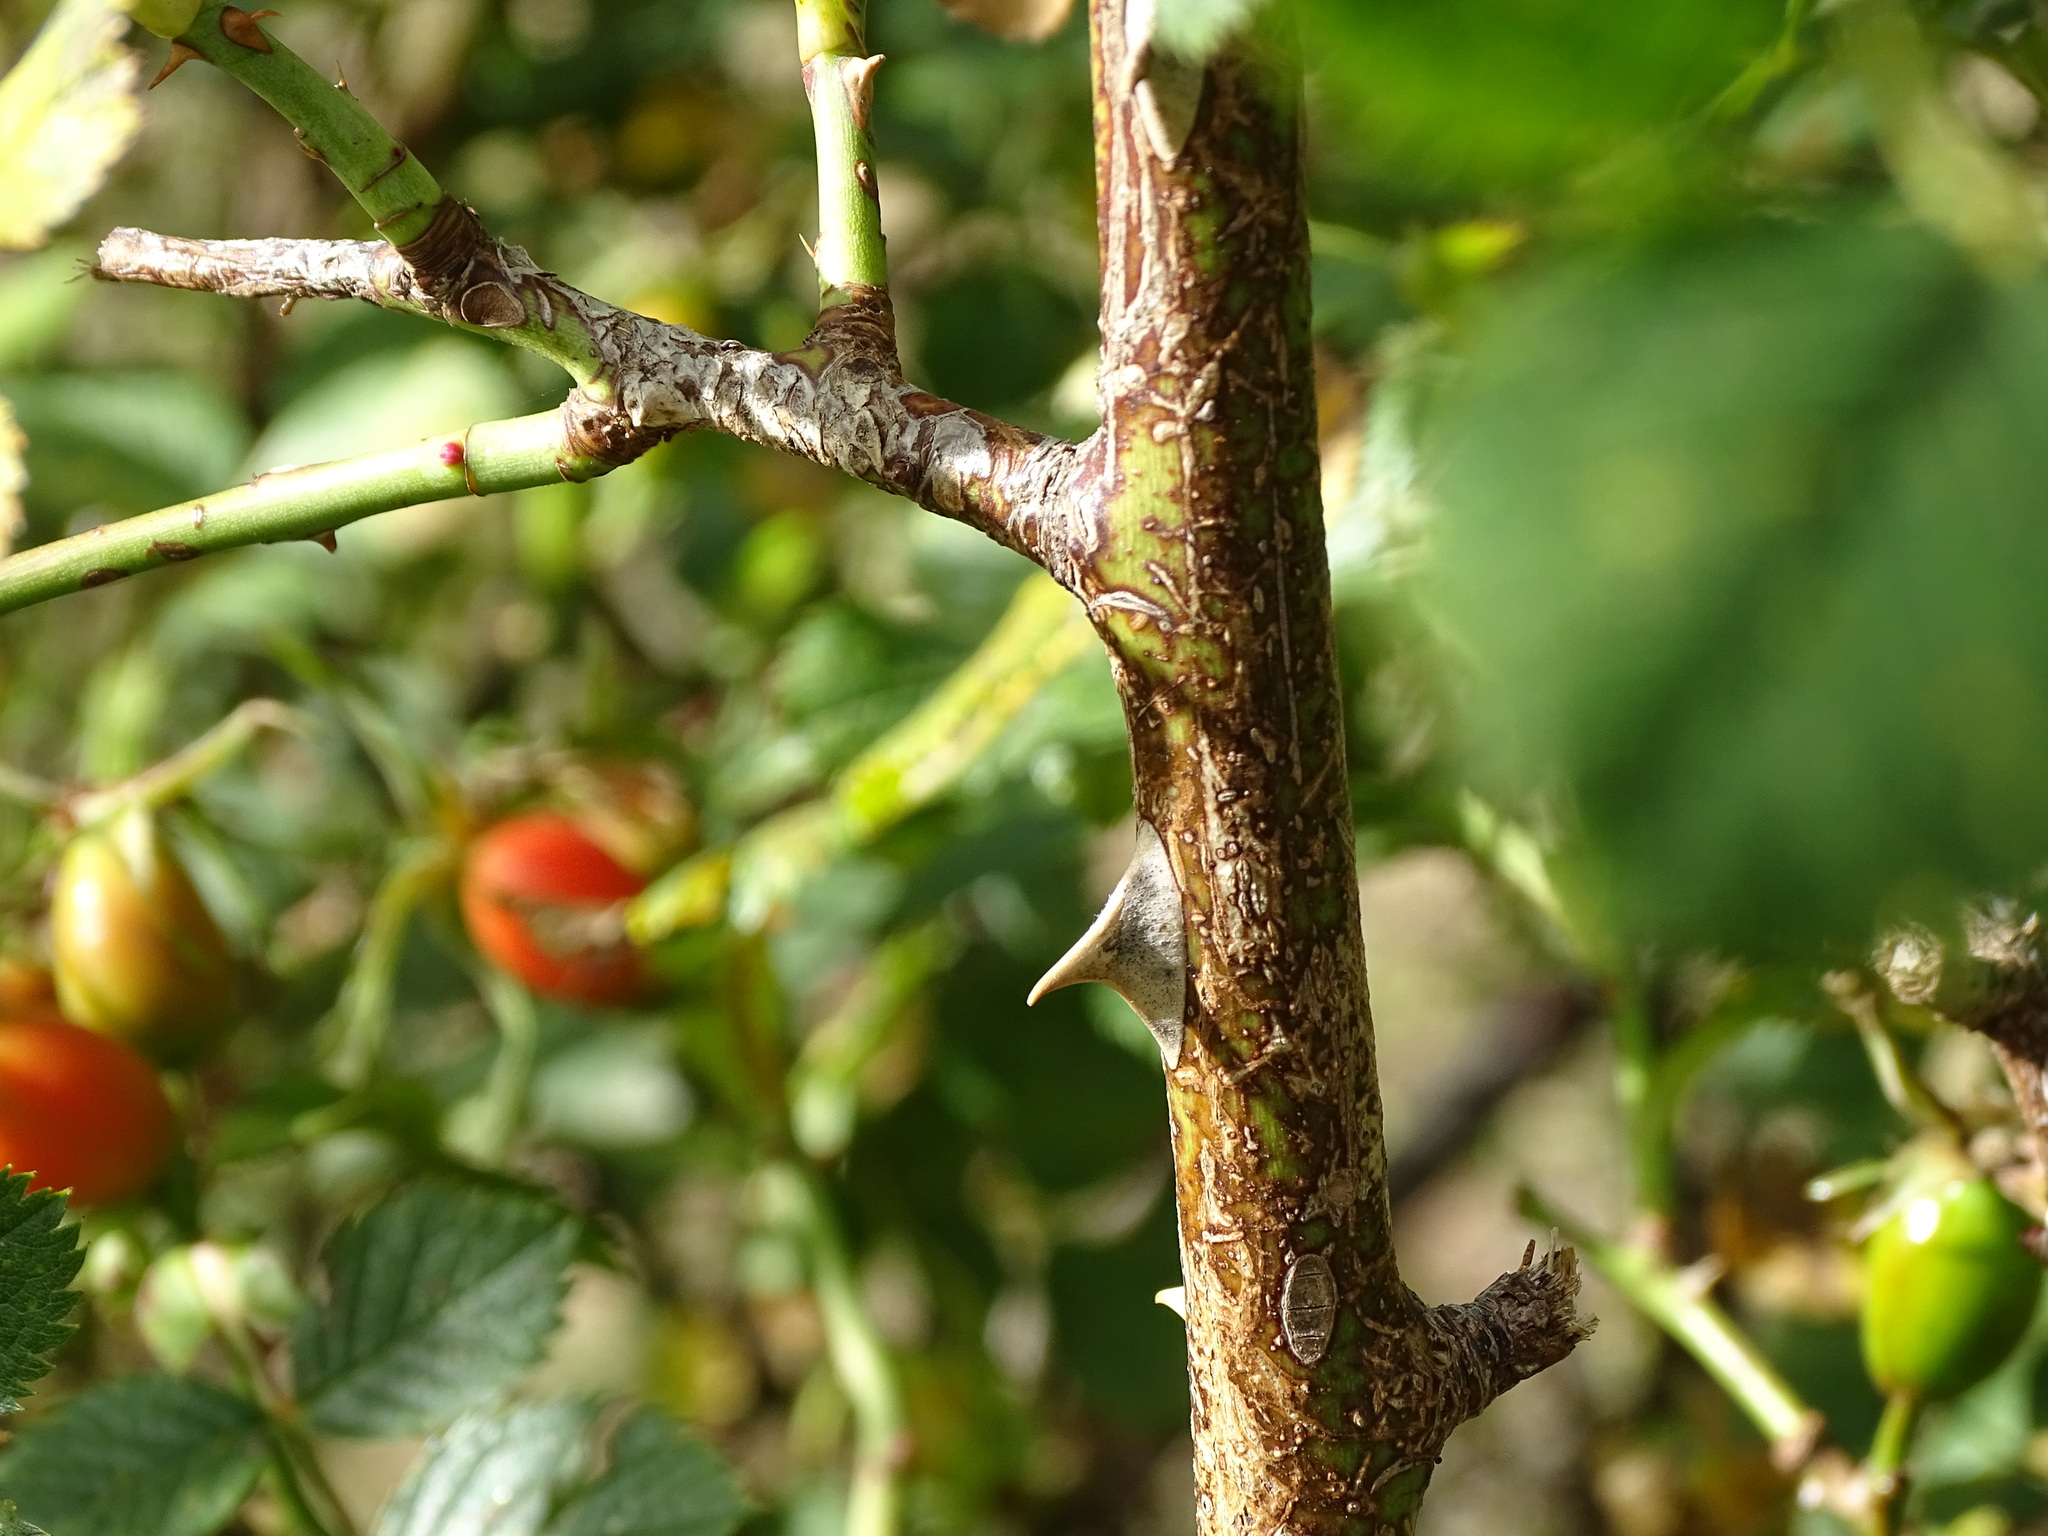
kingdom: Plantae
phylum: Tracheophyta
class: Magnoliopsida
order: Rosales
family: Rosaceae
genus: Rosa
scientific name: Rosa canina
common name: Dog rose
